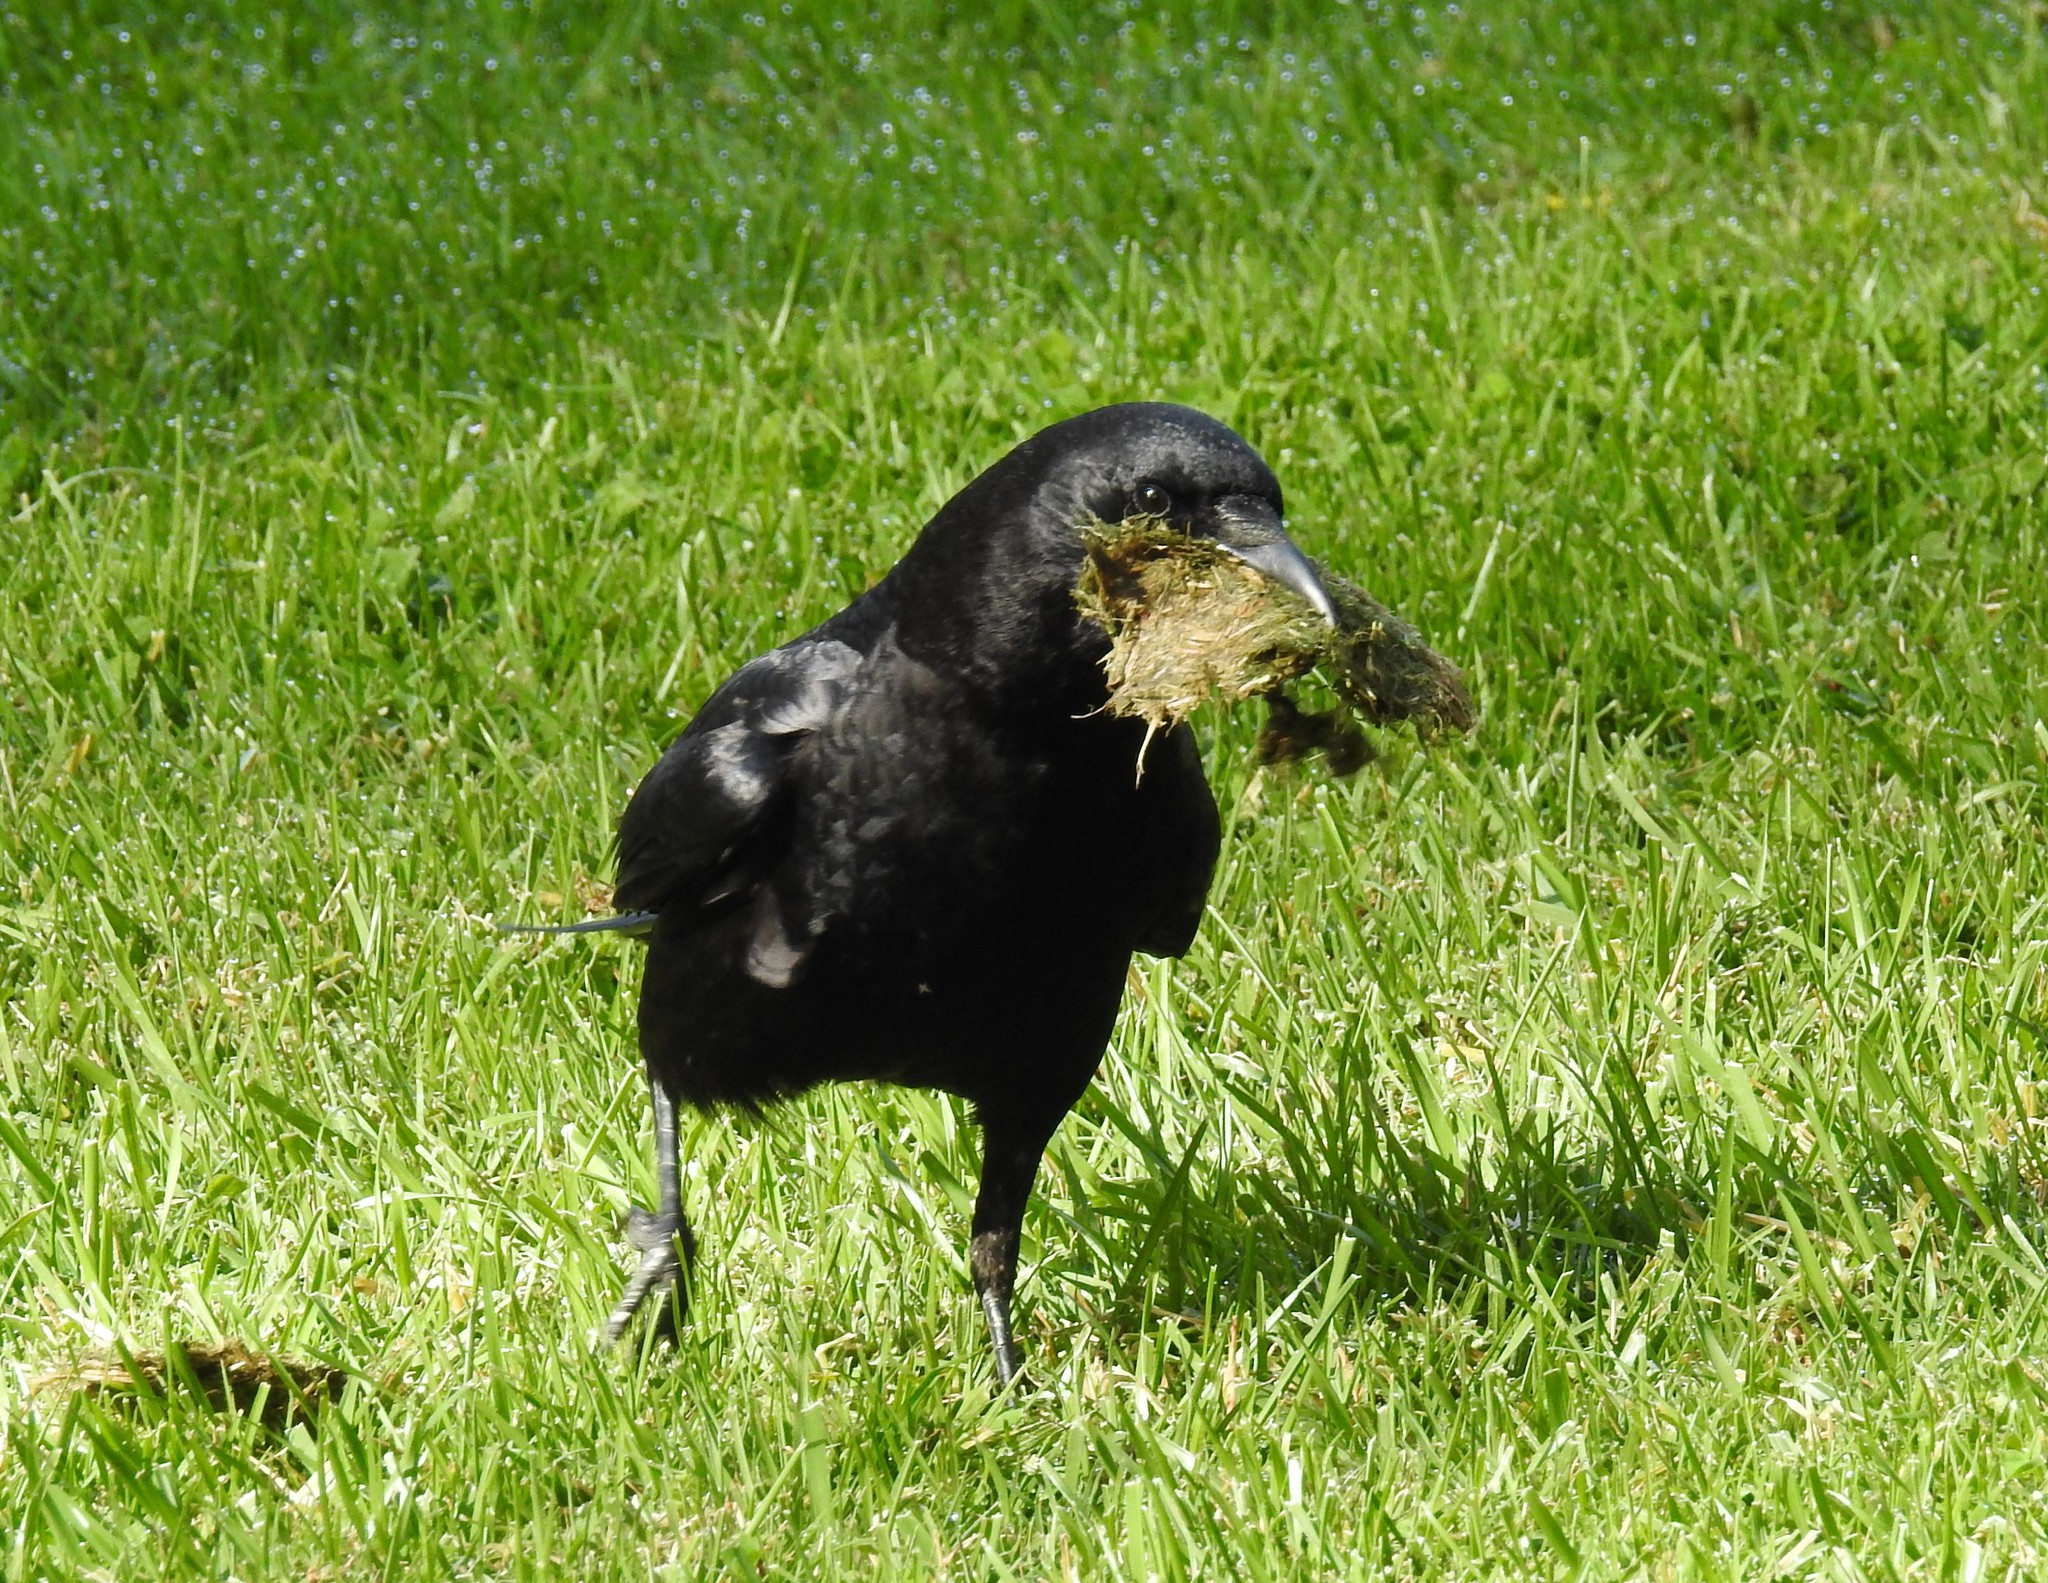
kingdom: Animalia
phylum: Chordata
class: Aves
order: Passeriformes
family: Corvidae
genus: Corvus
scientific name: Corvus brachyrhynchos
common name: American crow
